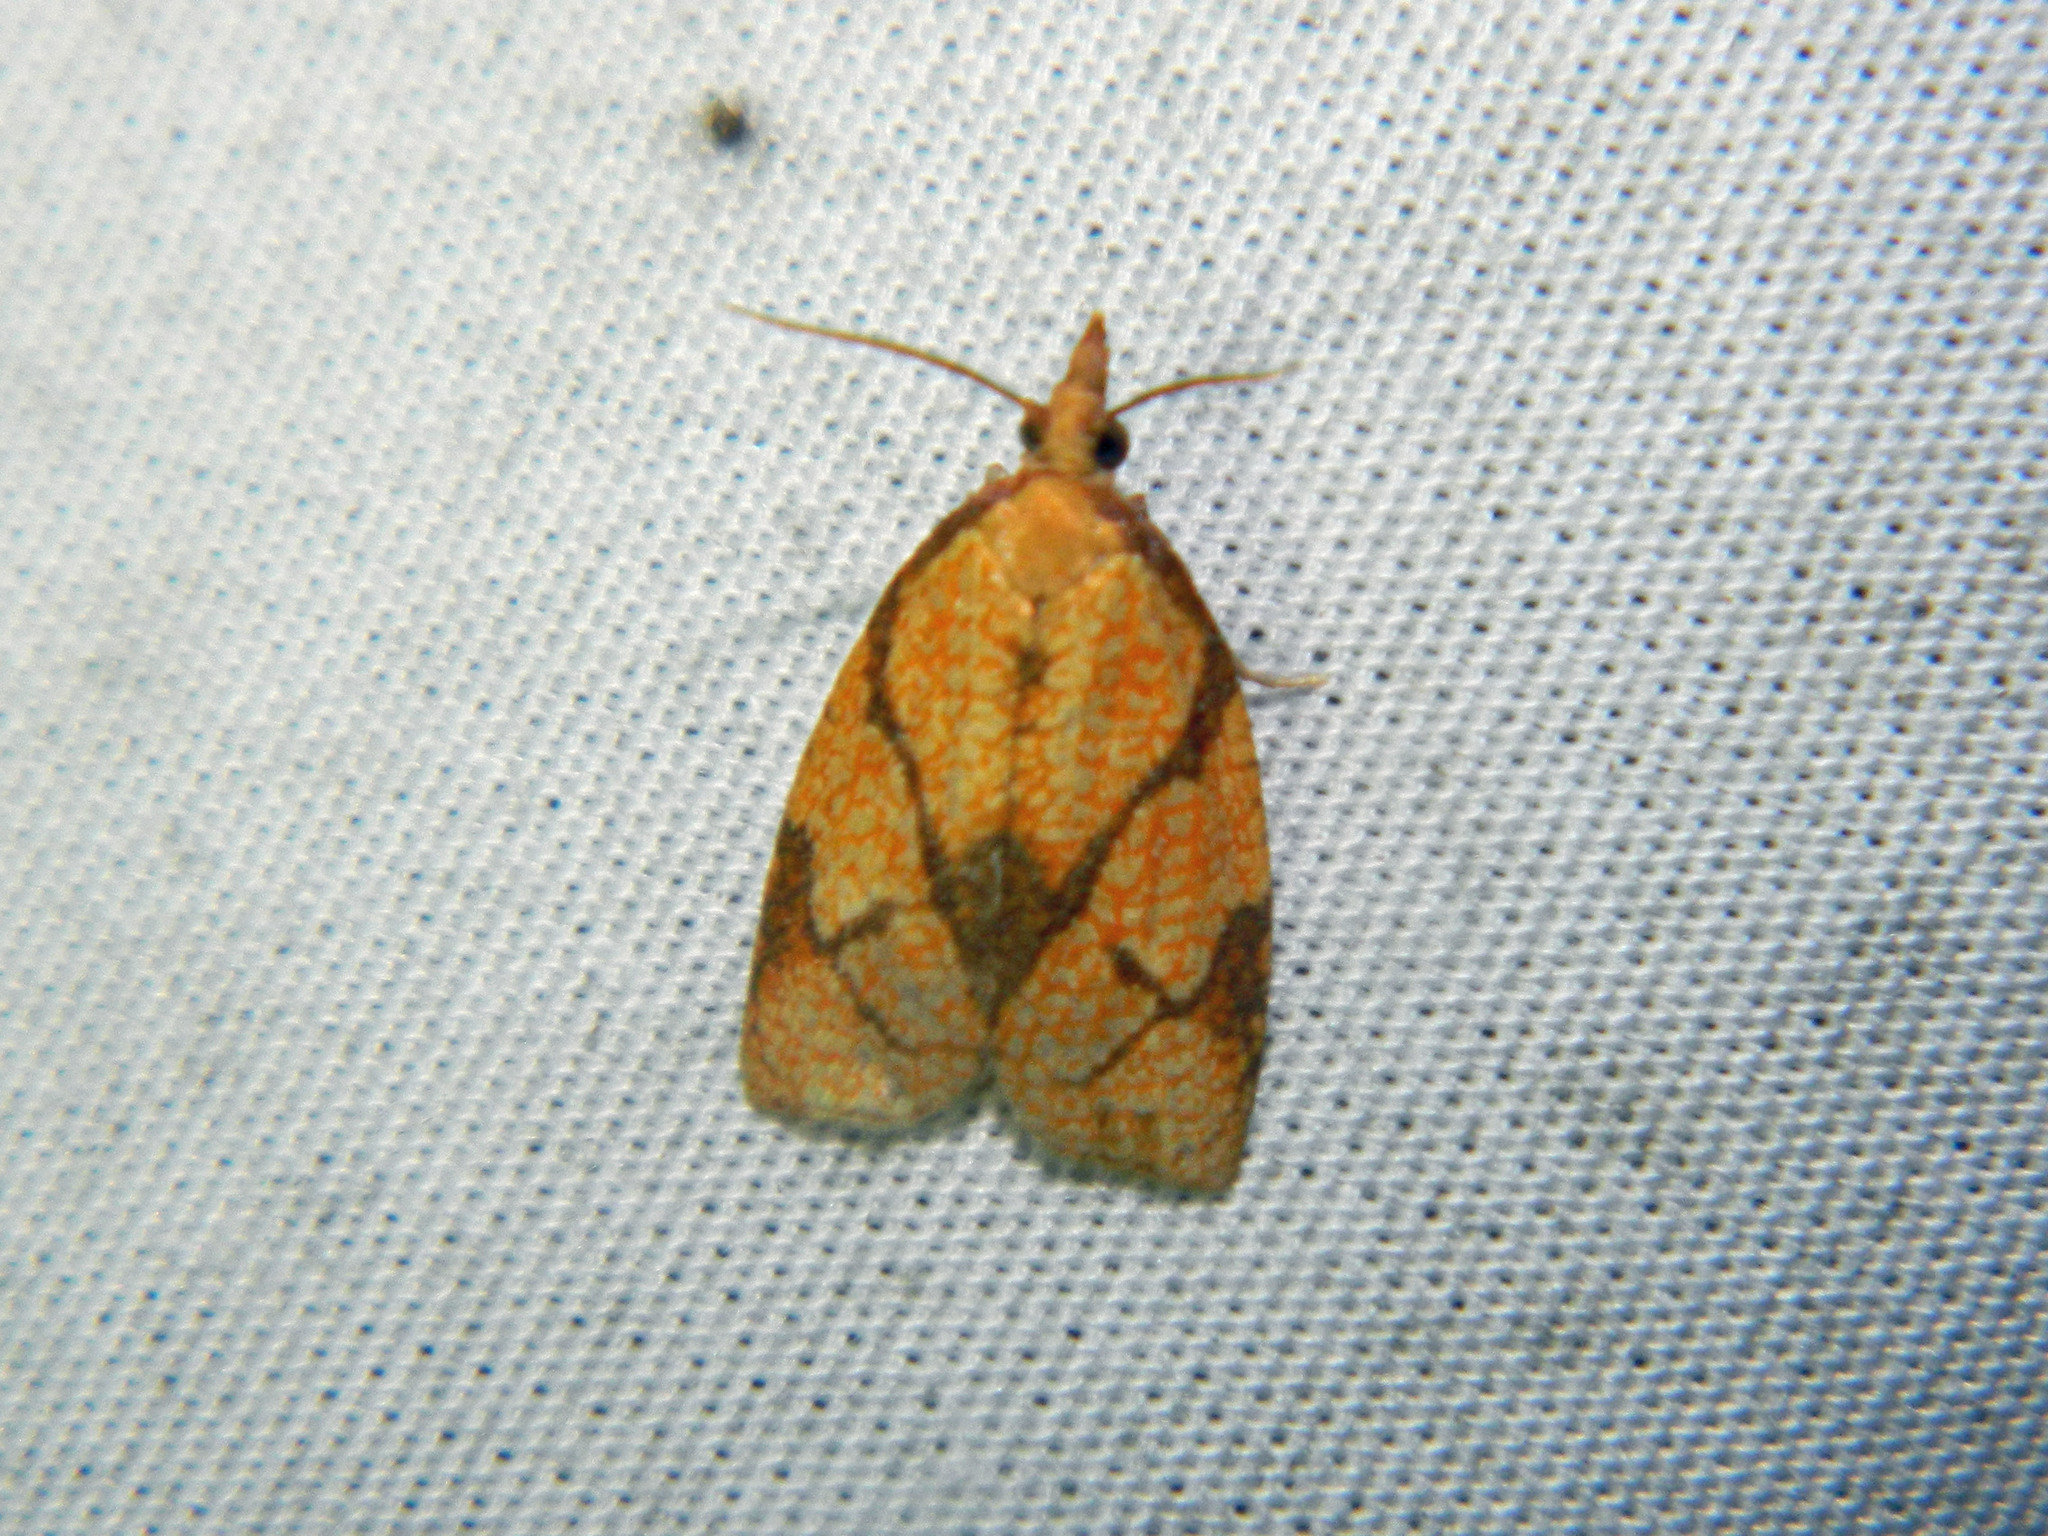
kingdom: Animalia
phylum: Arthropoda
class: Insecta
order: Lepidoptera
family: Tortricidae
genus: Cenopis
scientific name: Cenopis reticulatana
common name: Reticulated fruitworm moth
